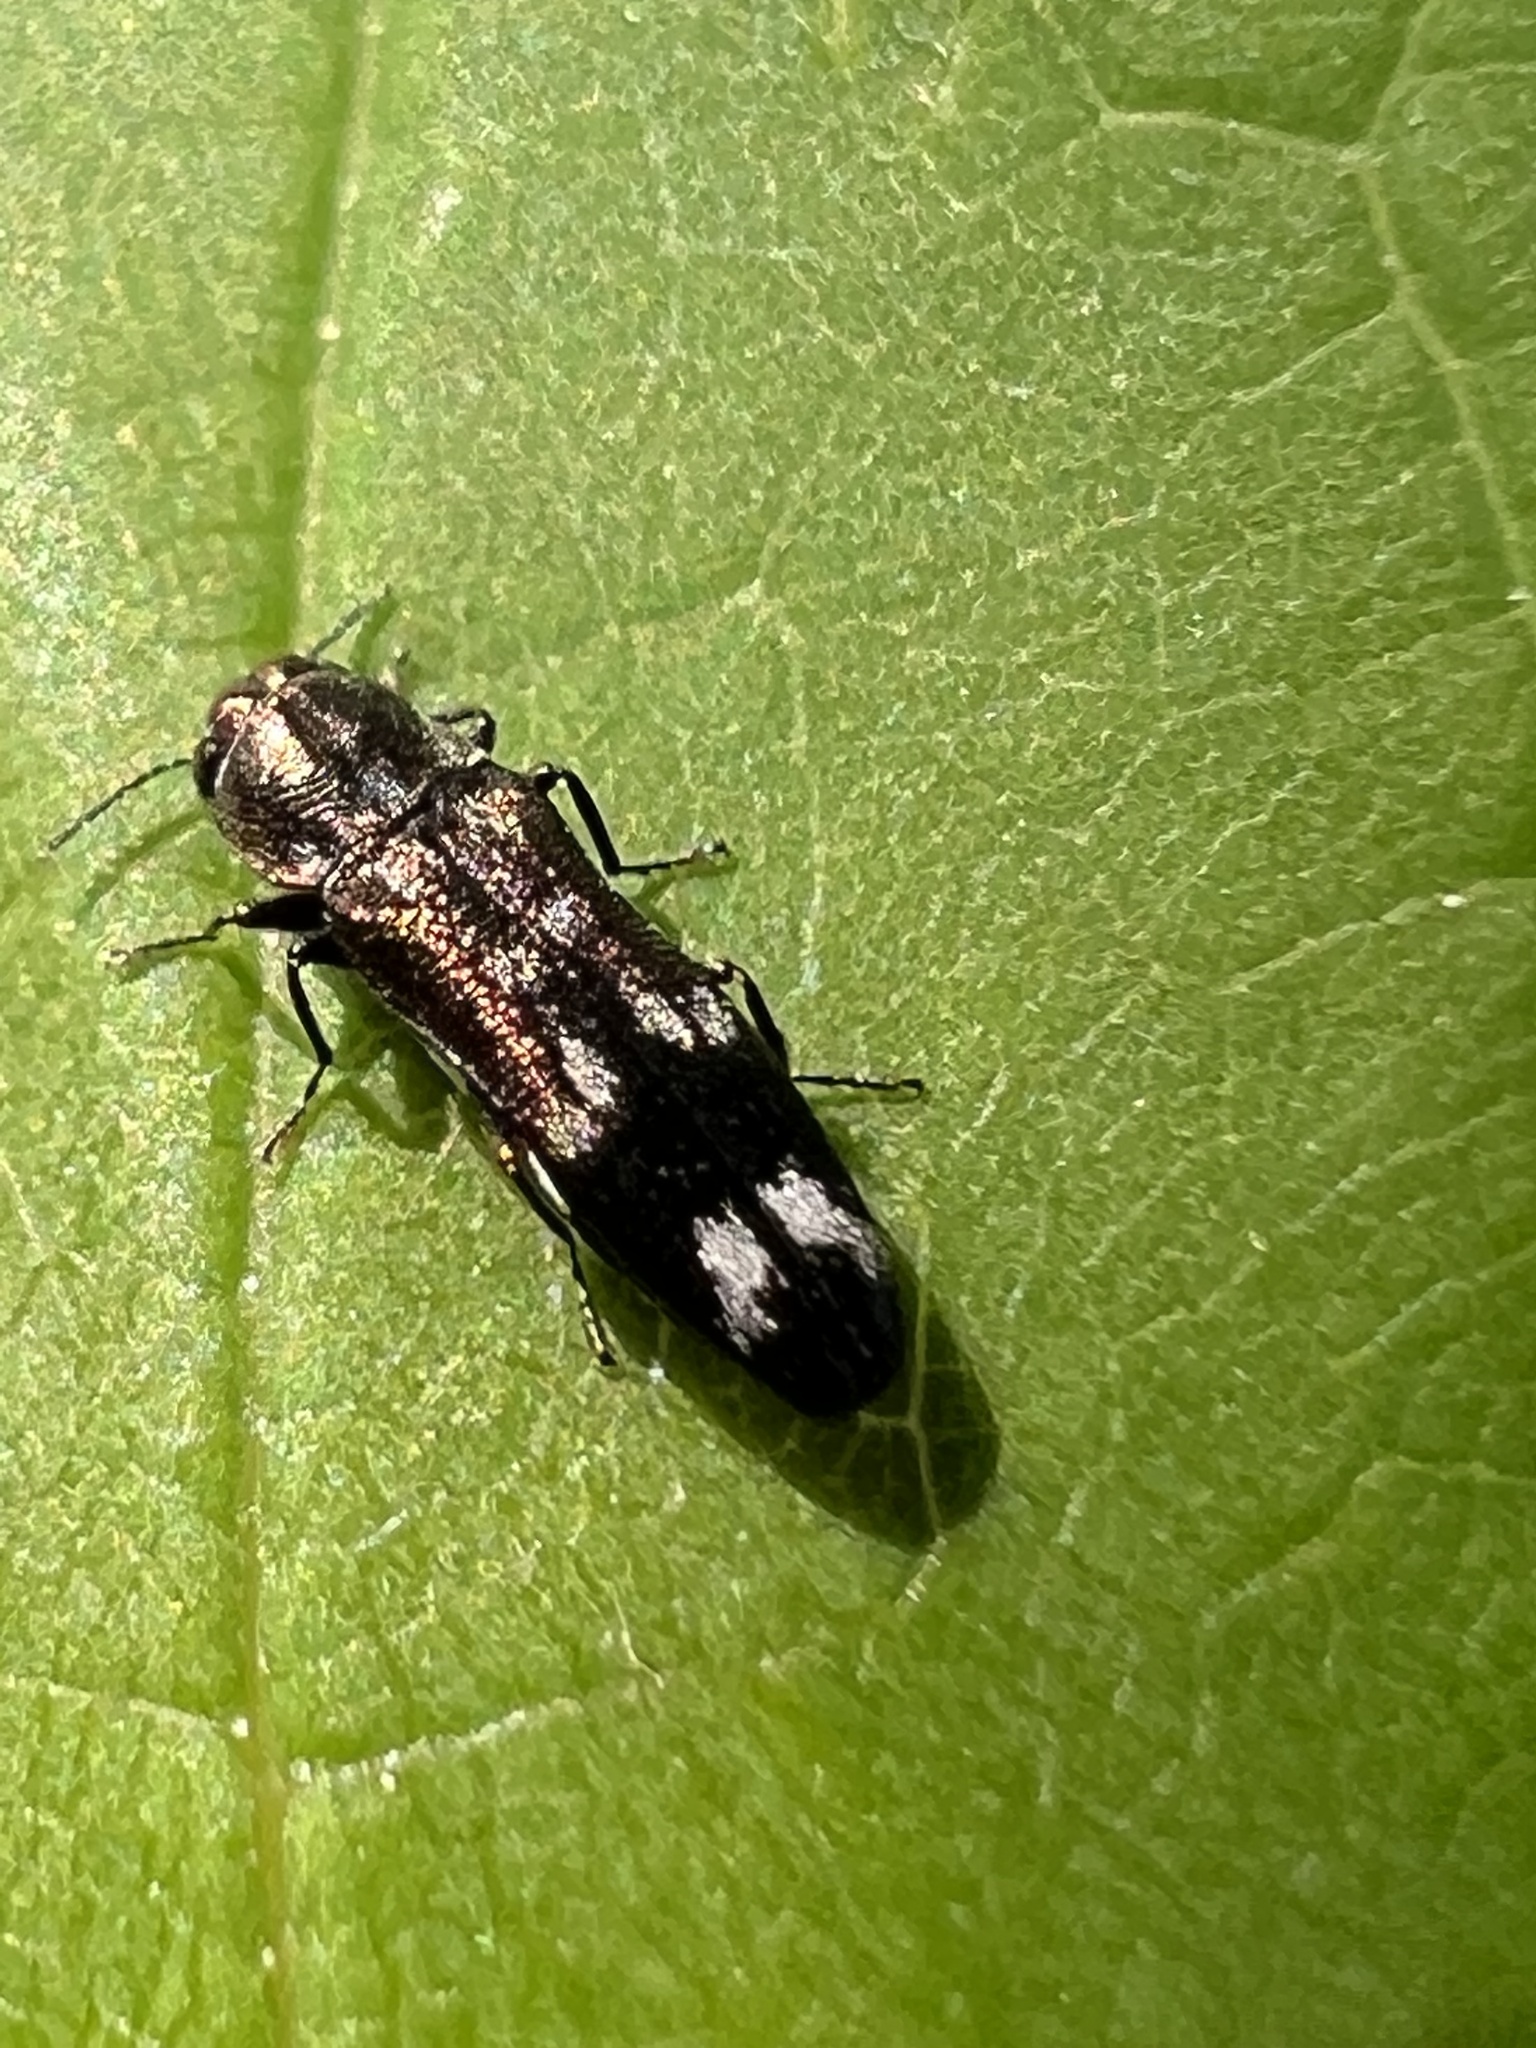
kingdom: Animalia
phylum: Arthropoda
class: Insecta
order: Coleoptera
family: Buprestidae
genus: Agrilus
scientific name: Agrilus subcinctus
